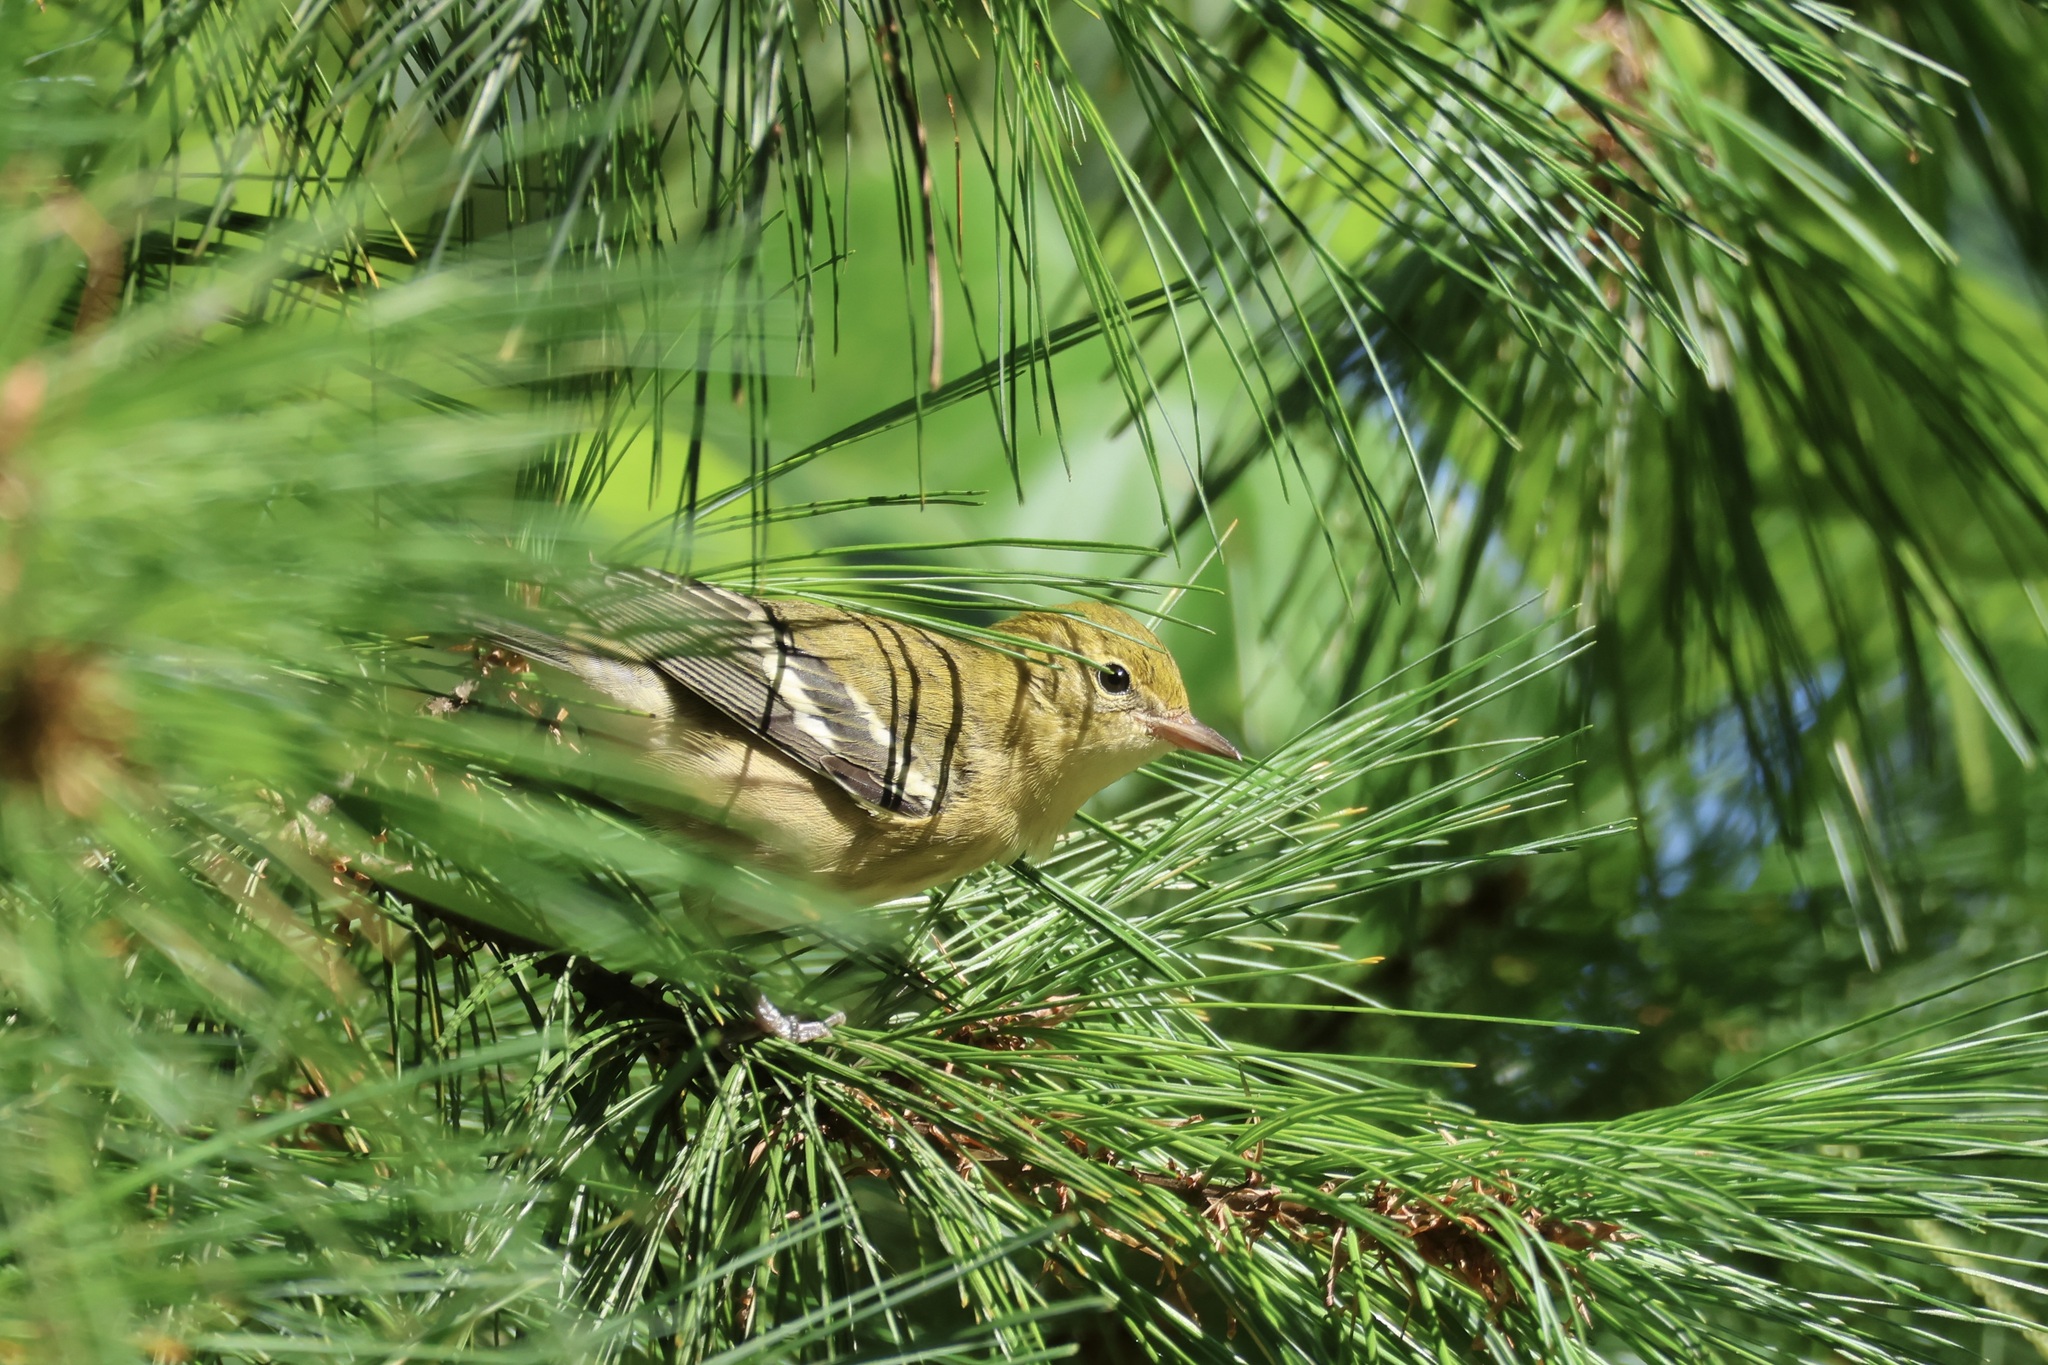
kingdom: Animalia
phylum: Chordata
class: Aves
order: Passeriformes
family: Parulidae
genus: Setophaga
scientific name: Setophaga castanea
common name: Bay-breasted warbler
